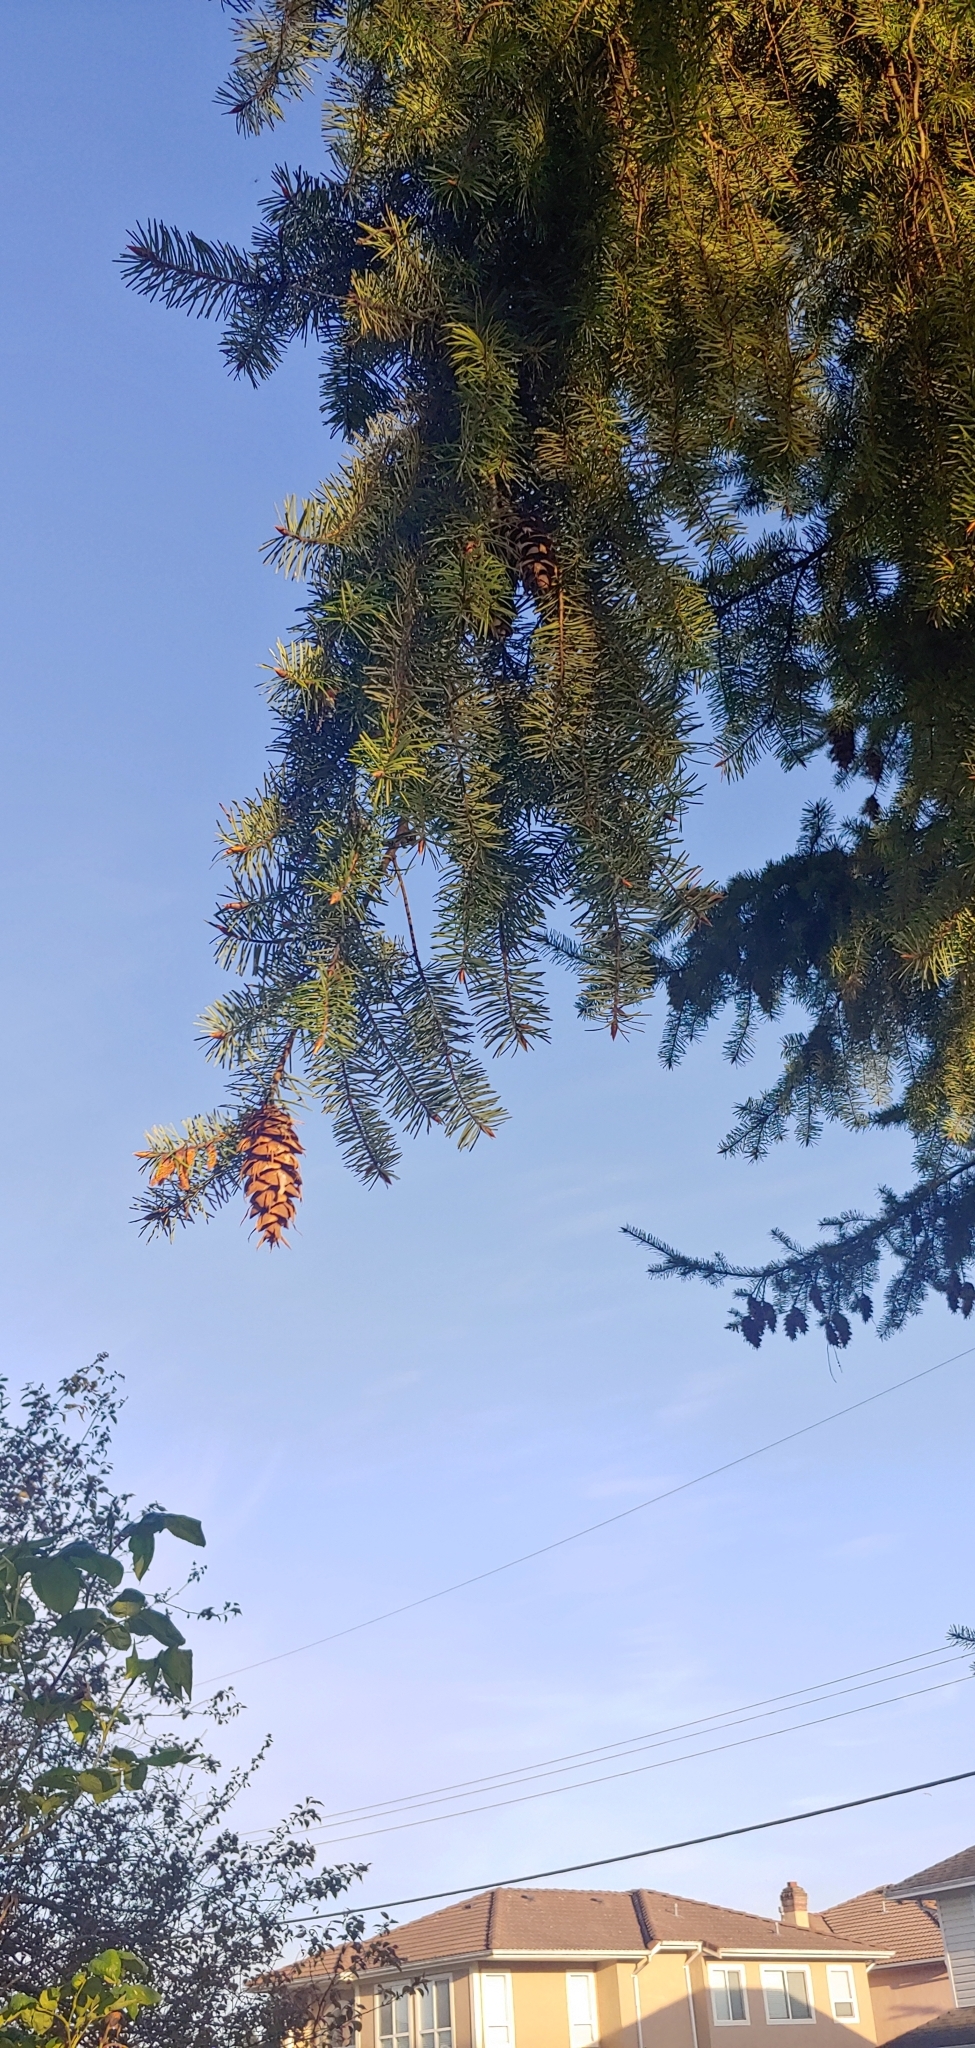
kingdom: Plantae
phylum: Tracheophyta
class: Pinopsida
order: Pinales
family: Pinaceae
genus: Pseudotsuga
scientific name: Pseudotsuga menziesii
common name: Douglas fir
